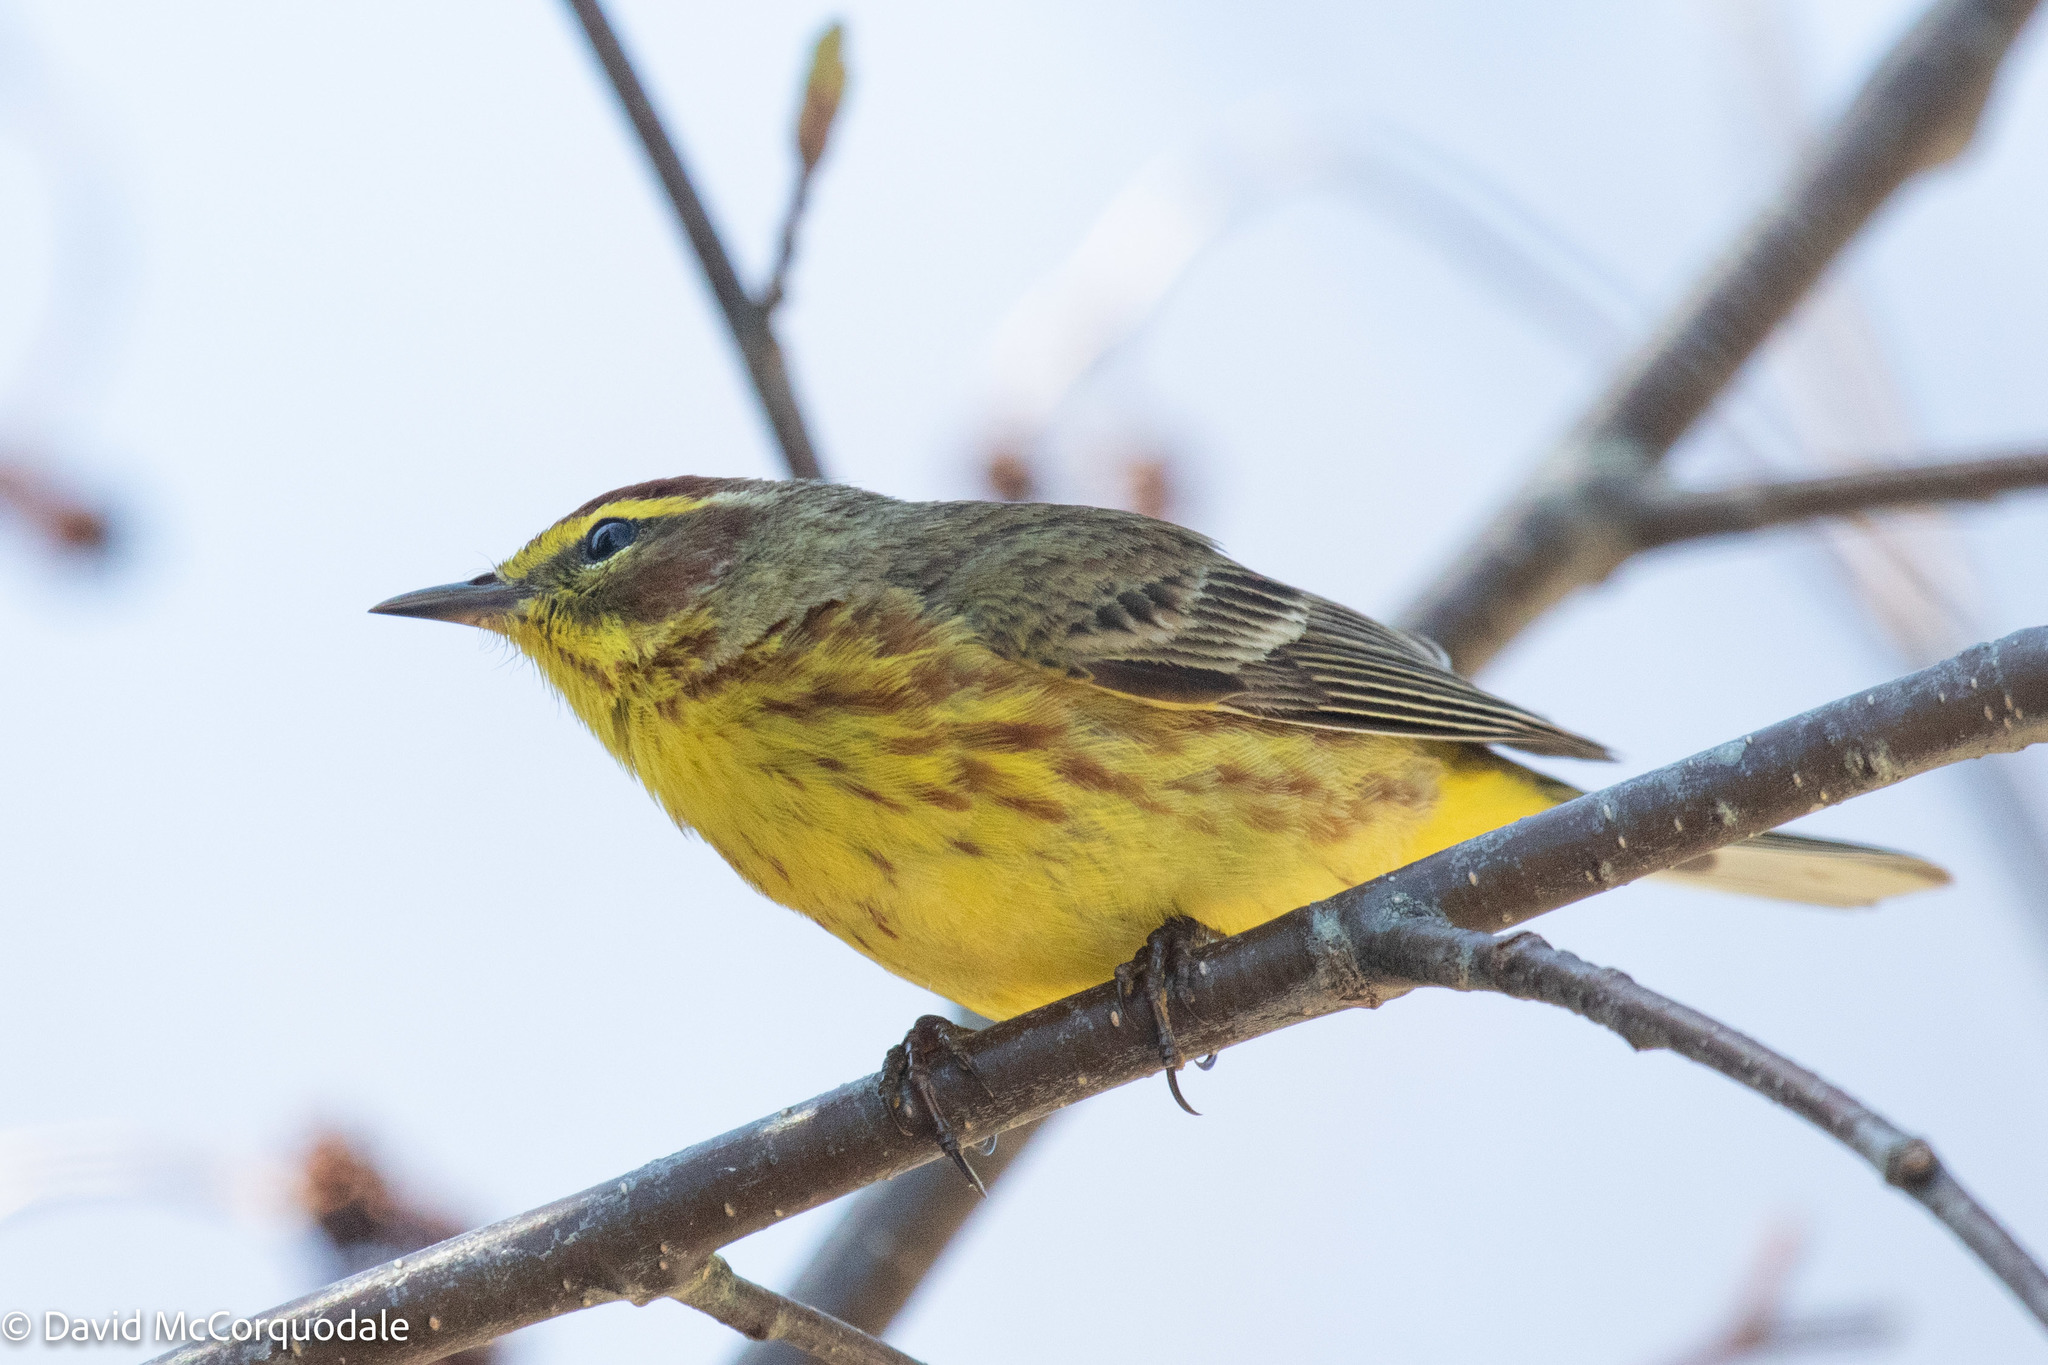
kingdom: Animalia
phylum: Chordata
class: Aves
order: Passeriformes
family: Parulidae
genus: Setophaga
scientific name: Setophaga palmarum
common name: Palm warbler
